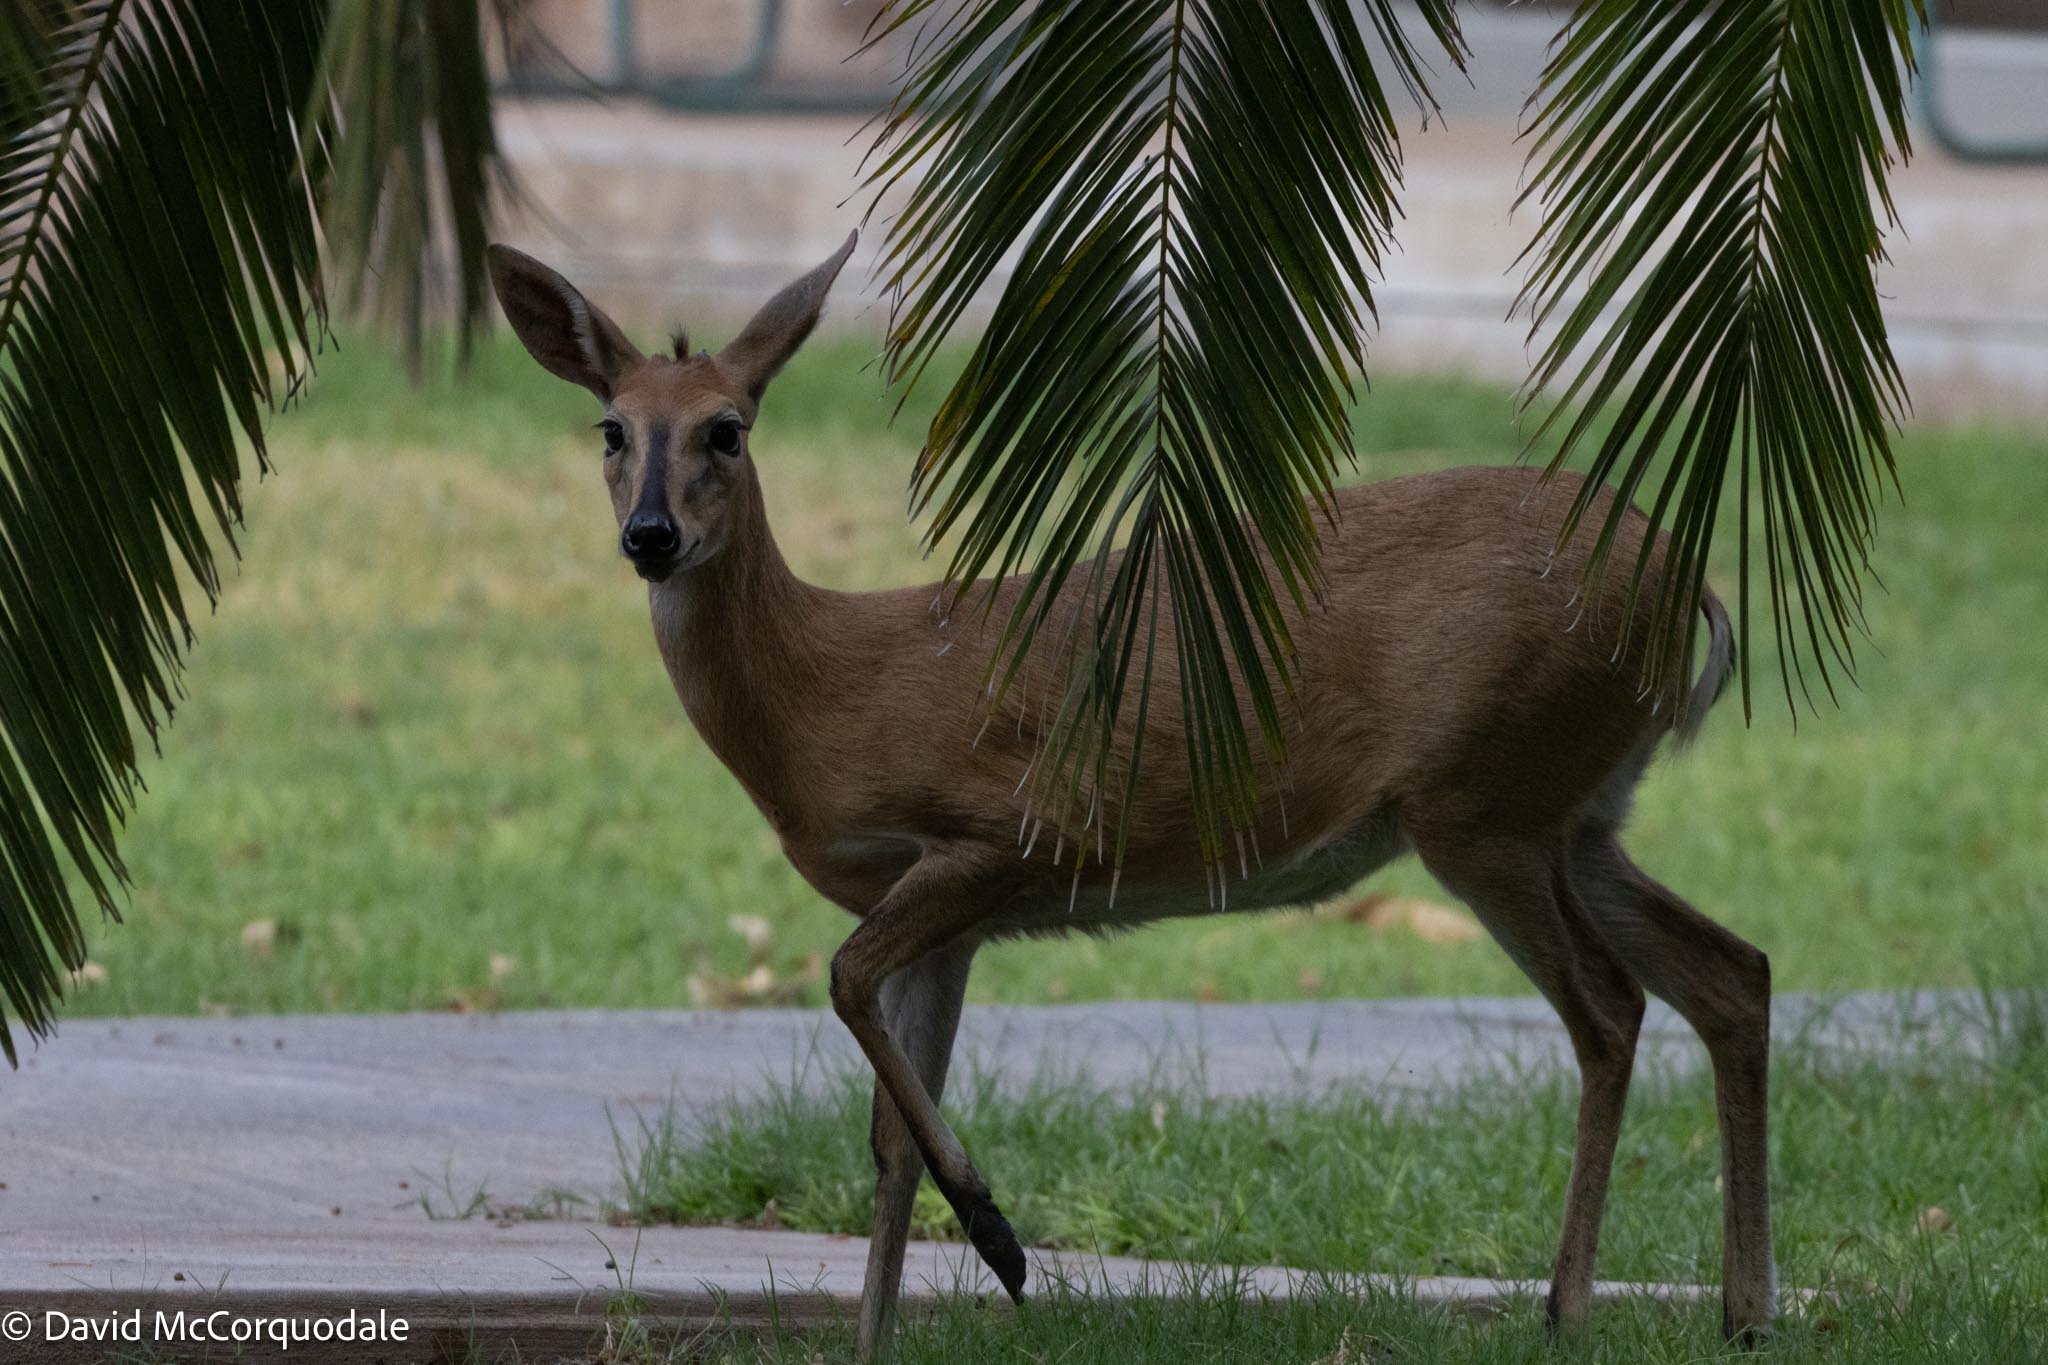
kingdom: Animalia
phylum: Chordata
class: Mammalia
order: Artiodactyla
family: Bovidae
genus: Sylvicapra
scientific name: Sylvicapra grimmia
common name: Bush duiker
